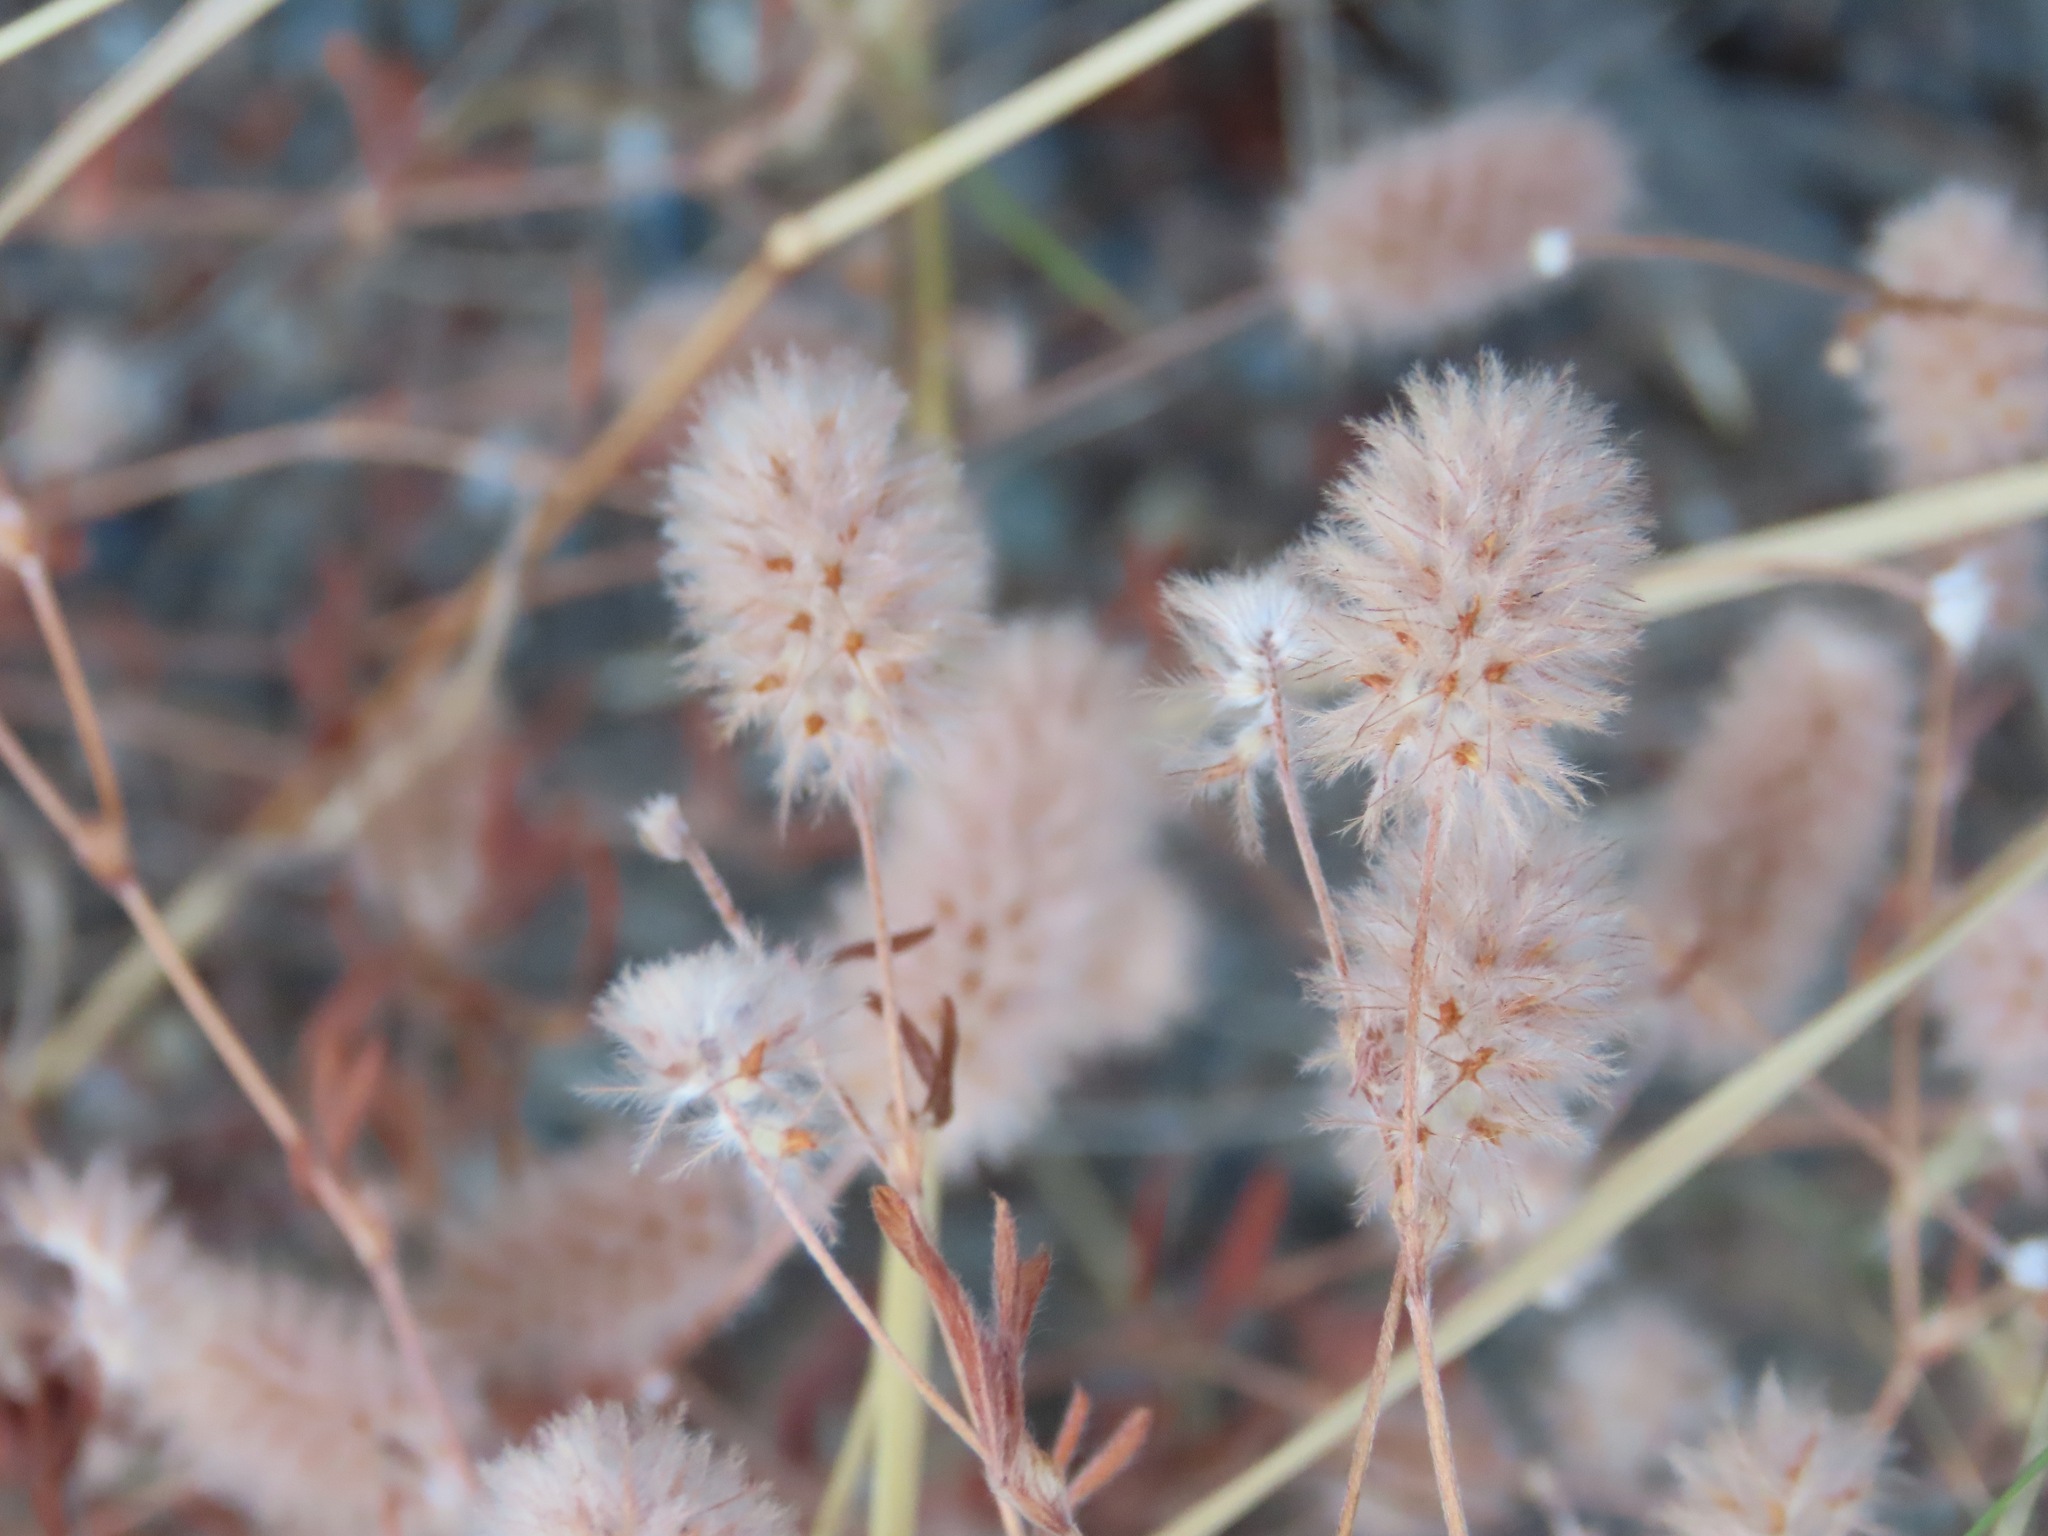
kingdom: Plantae
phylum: Tracheophyta
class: Magnoliopsida
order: Fabales
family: Fabaceae
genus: Trifolium
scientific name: Trifolium arvense
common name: Hare's-foot clover
